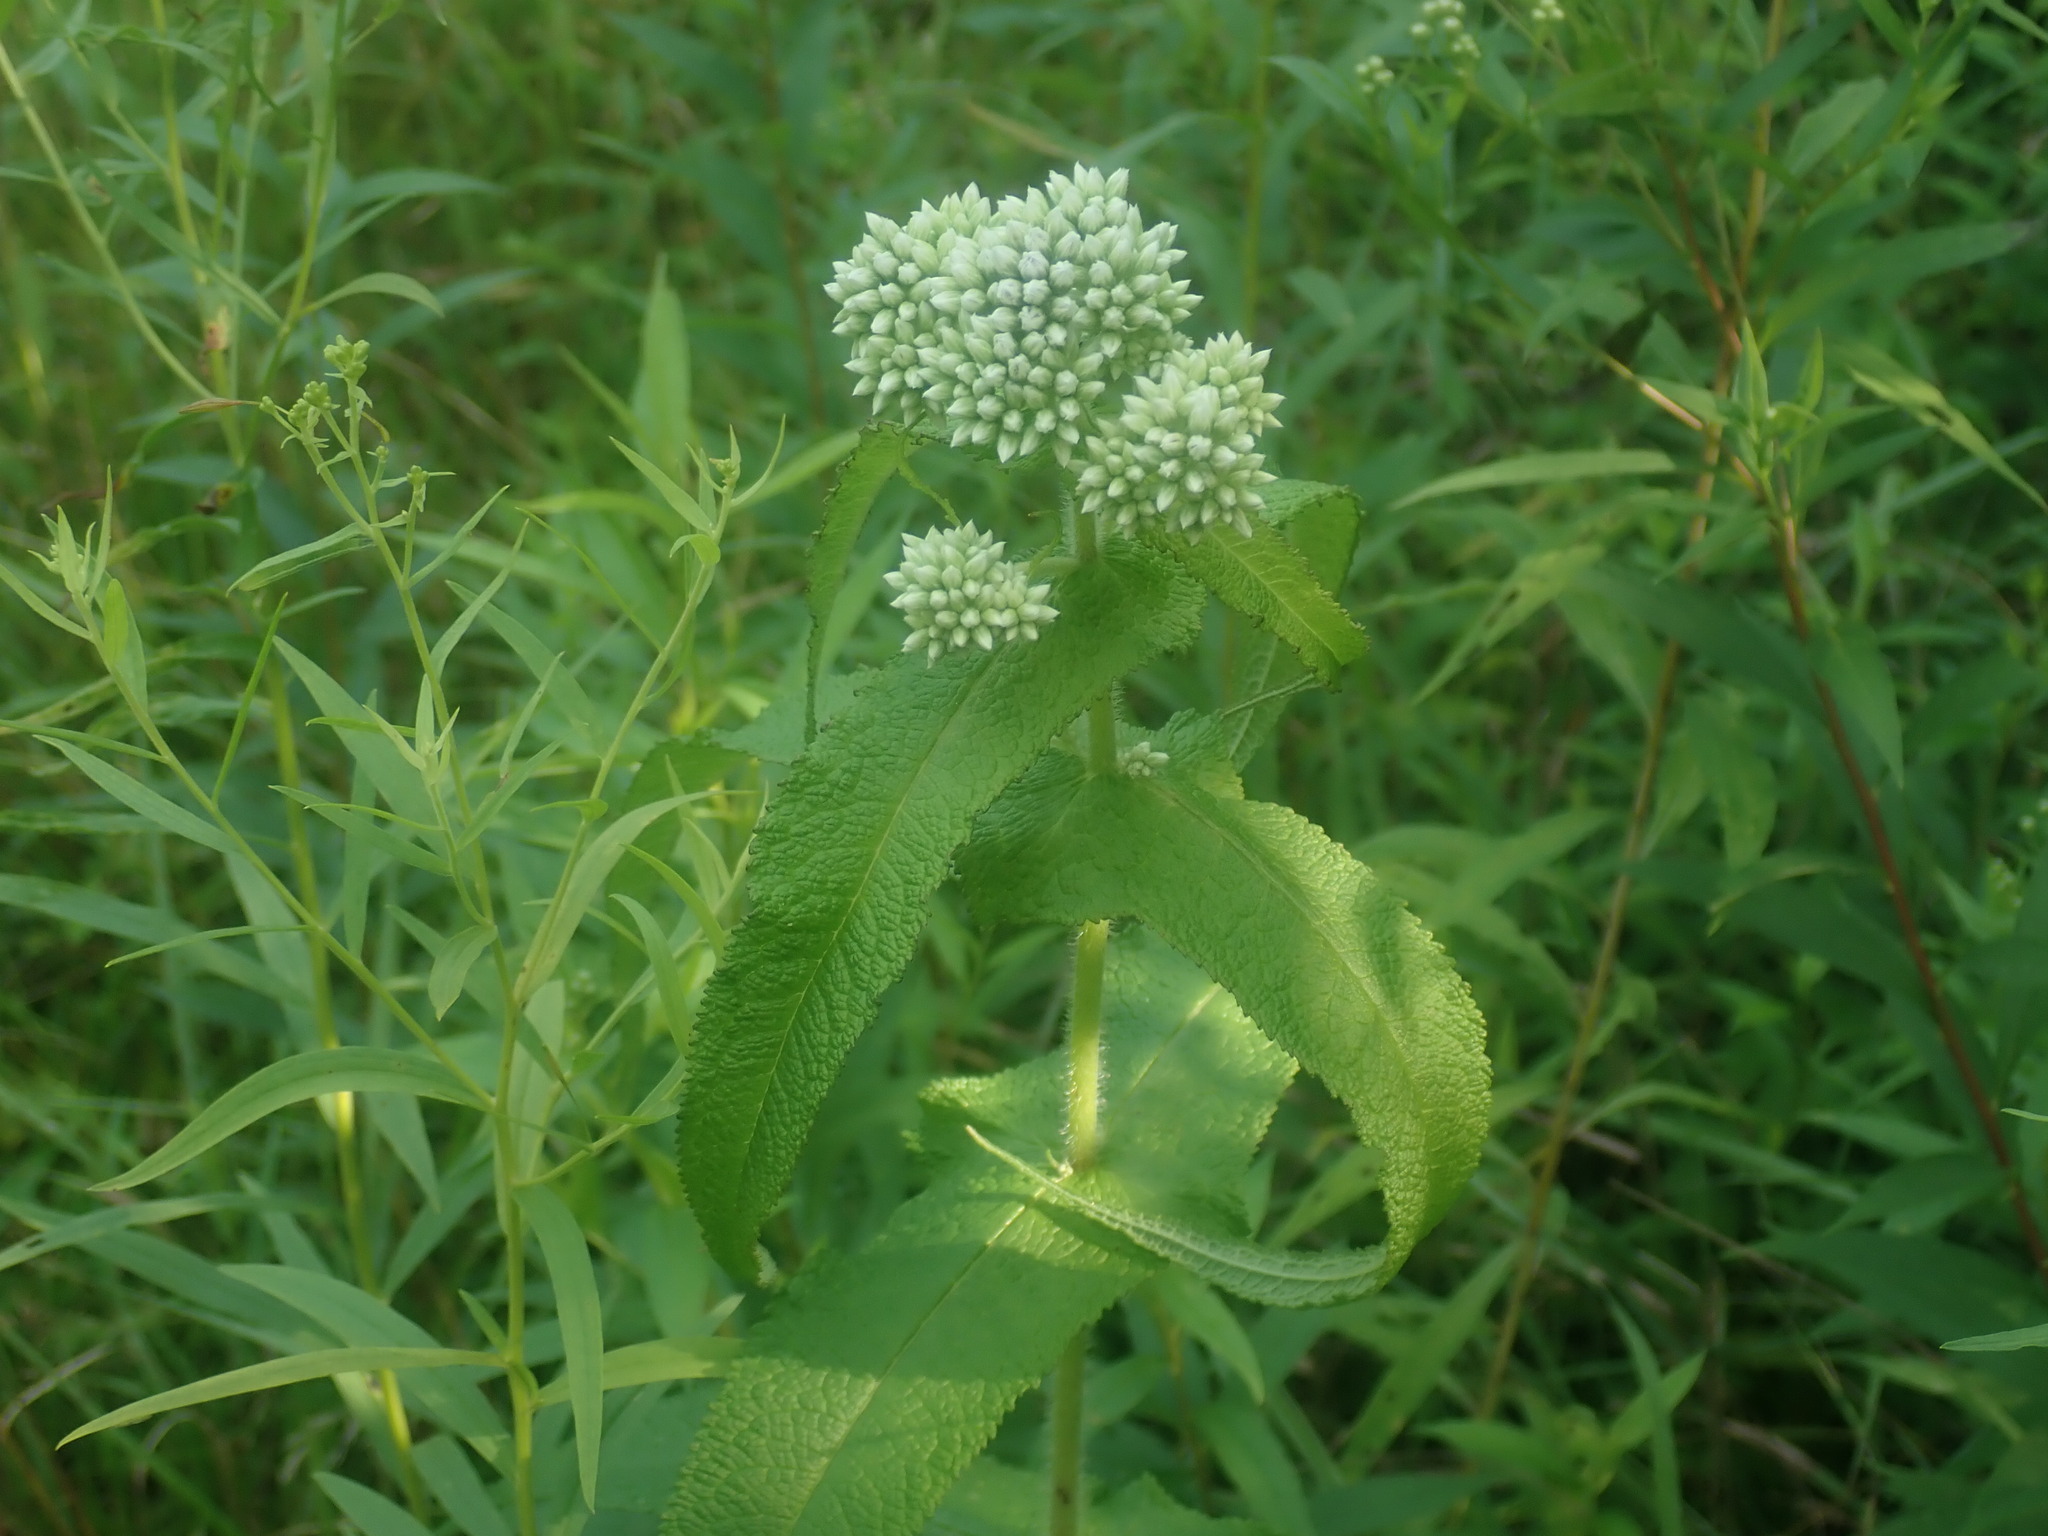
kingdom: Plantae
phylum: Tracheophyta
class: Magnoliopsida
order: Asterales
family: Asteraceae
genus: Eupatorium
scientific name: Eupatorium perfoliatum
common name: Boneset
